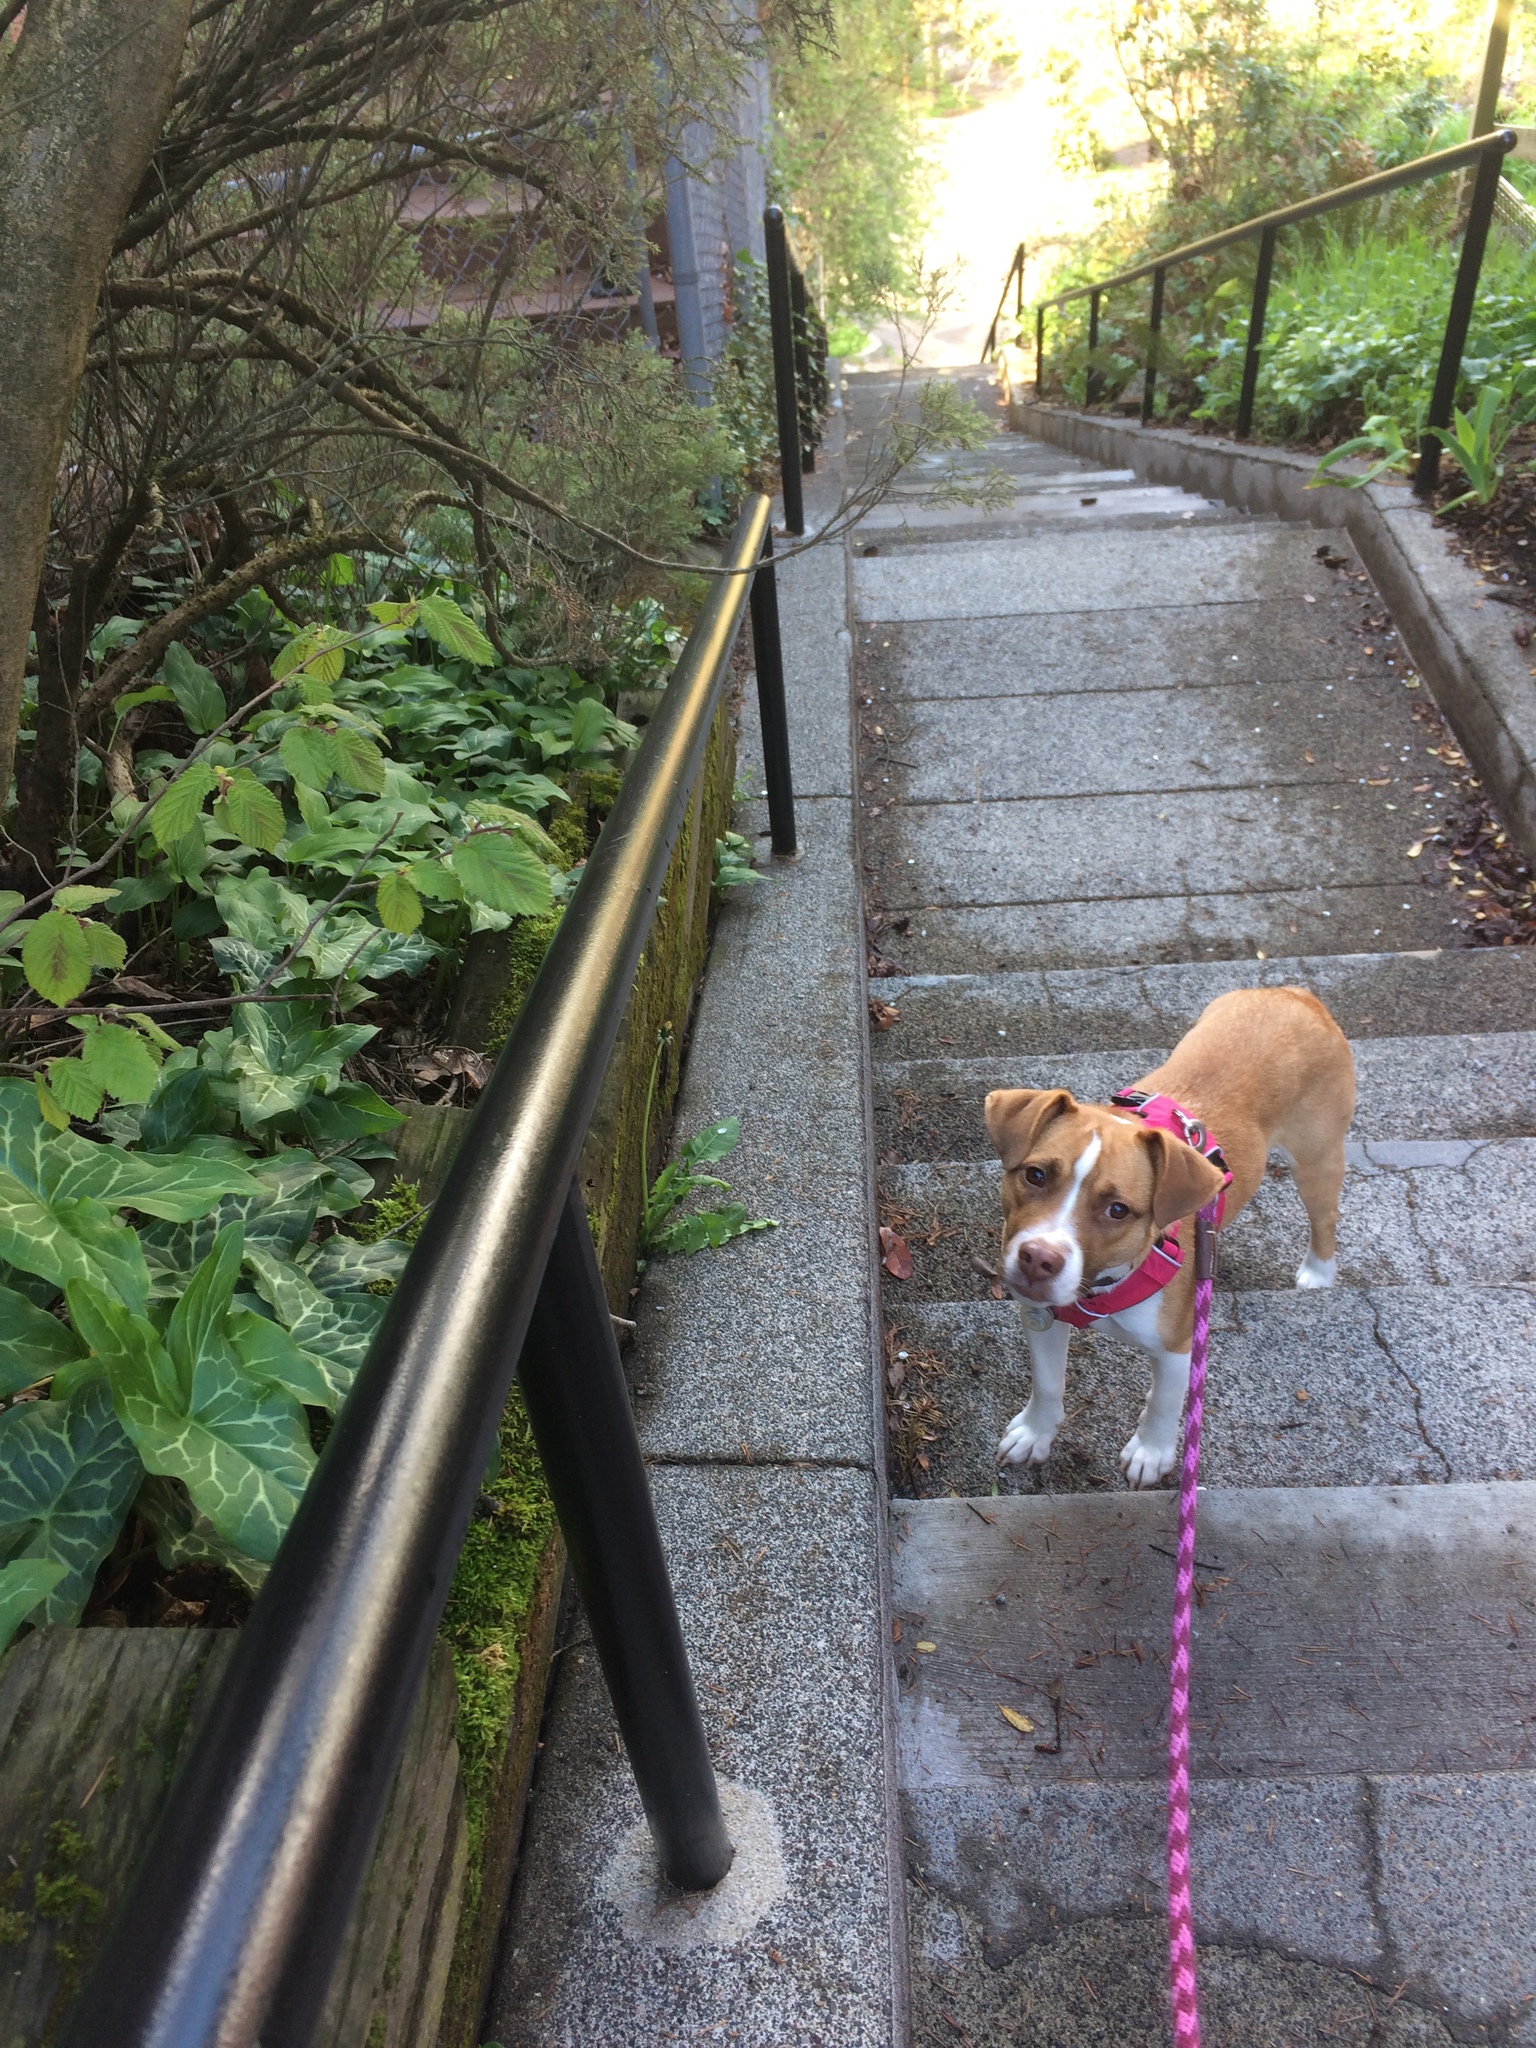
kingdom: Plantae
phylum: Tracheophyta
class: Liliopsida
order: Alismatales
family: Araceae
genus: Arum
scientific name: Arum italicum
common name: Italian lords-and-ladies
